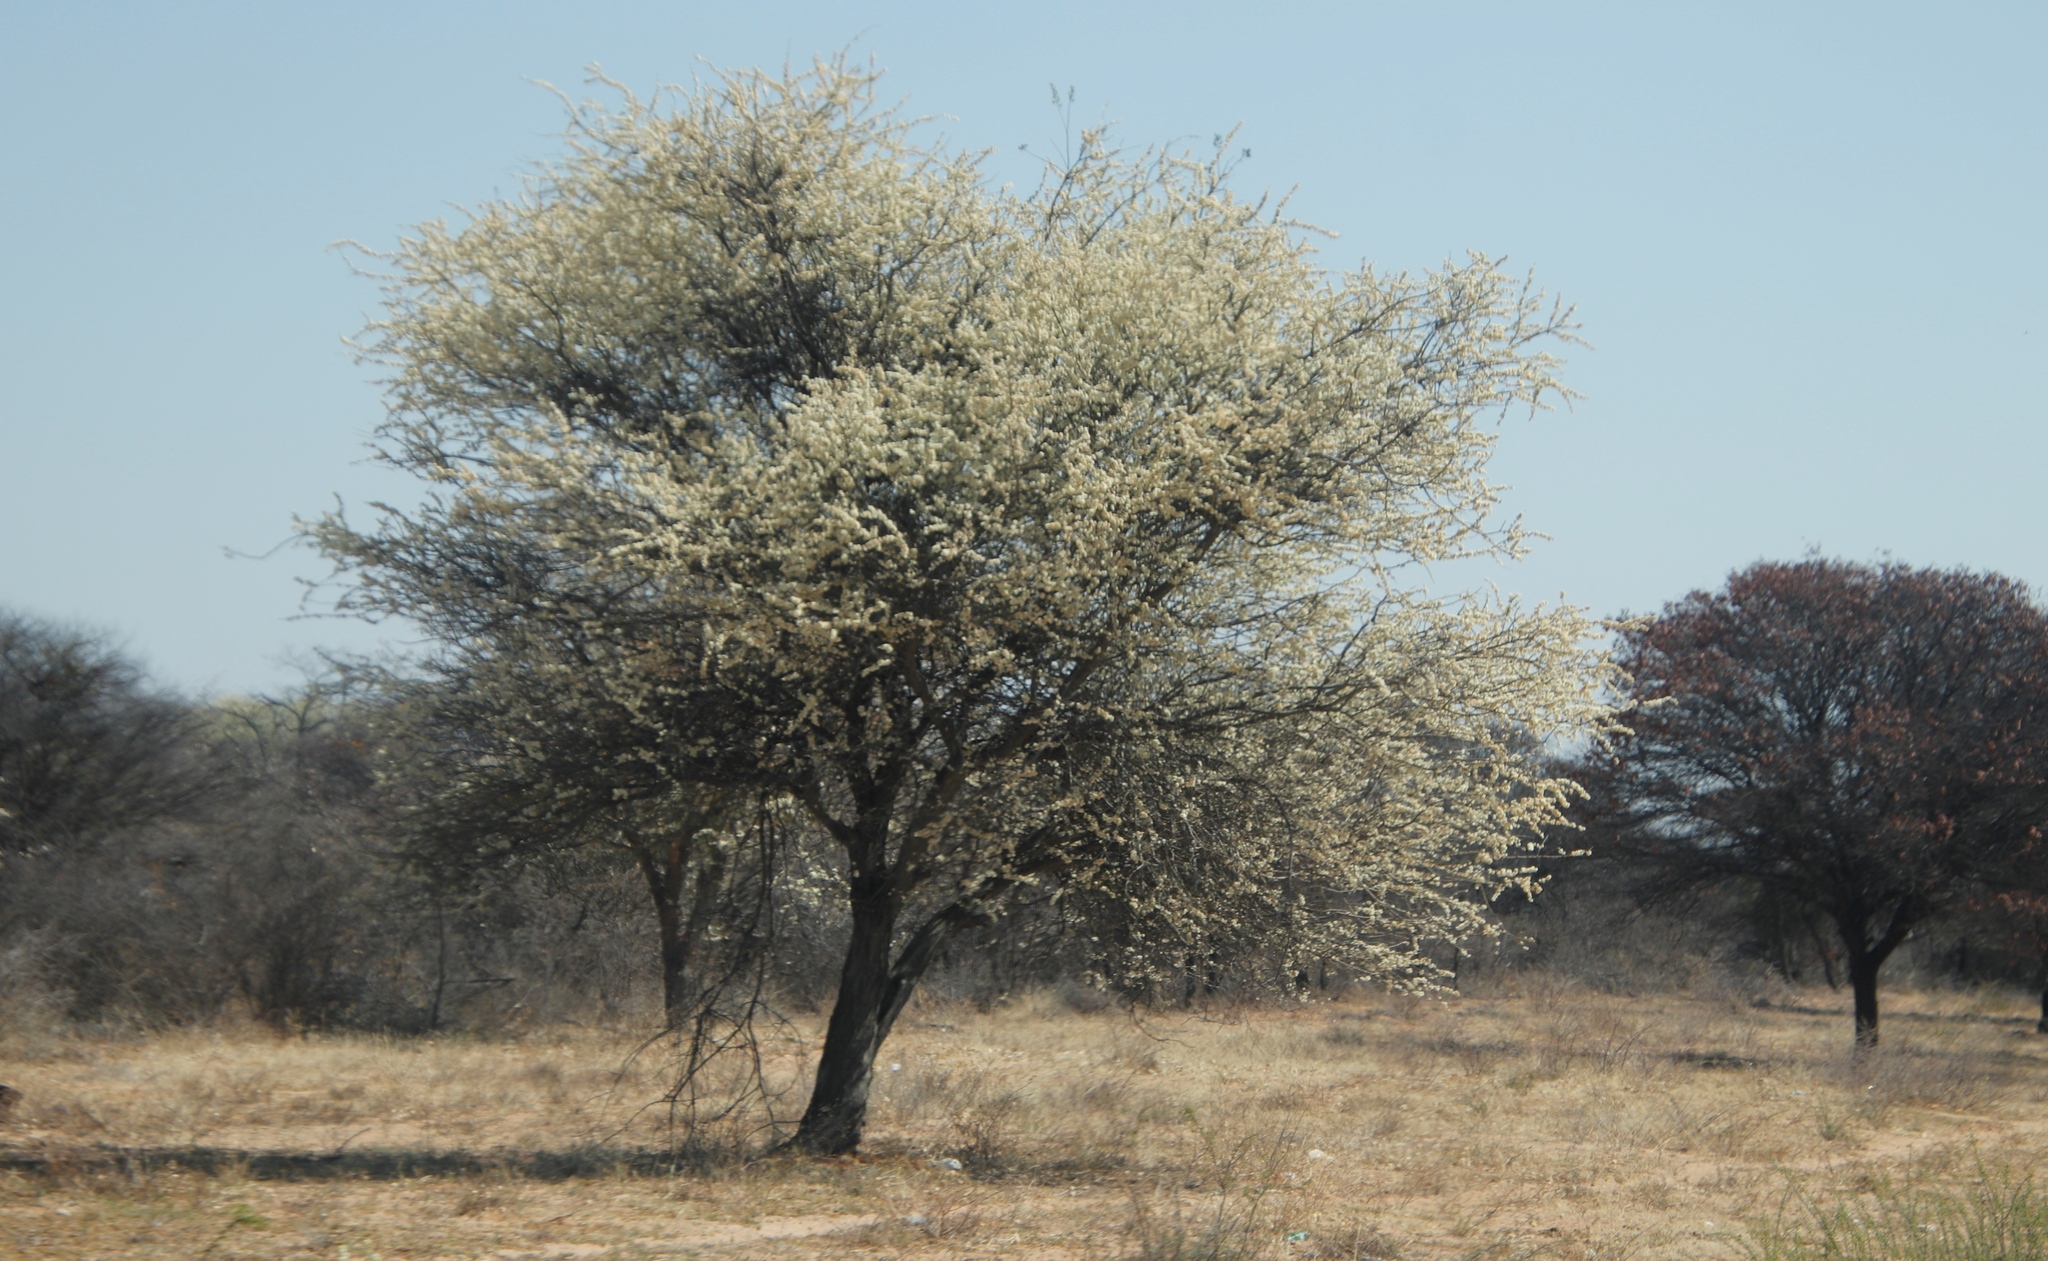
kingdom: Plantae
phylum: Tracheophyta
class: Magnoliopsida
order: Fabales
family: Fabaceae
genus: Senegalia
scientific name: Senegalia mellifera
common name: Hookthorn
